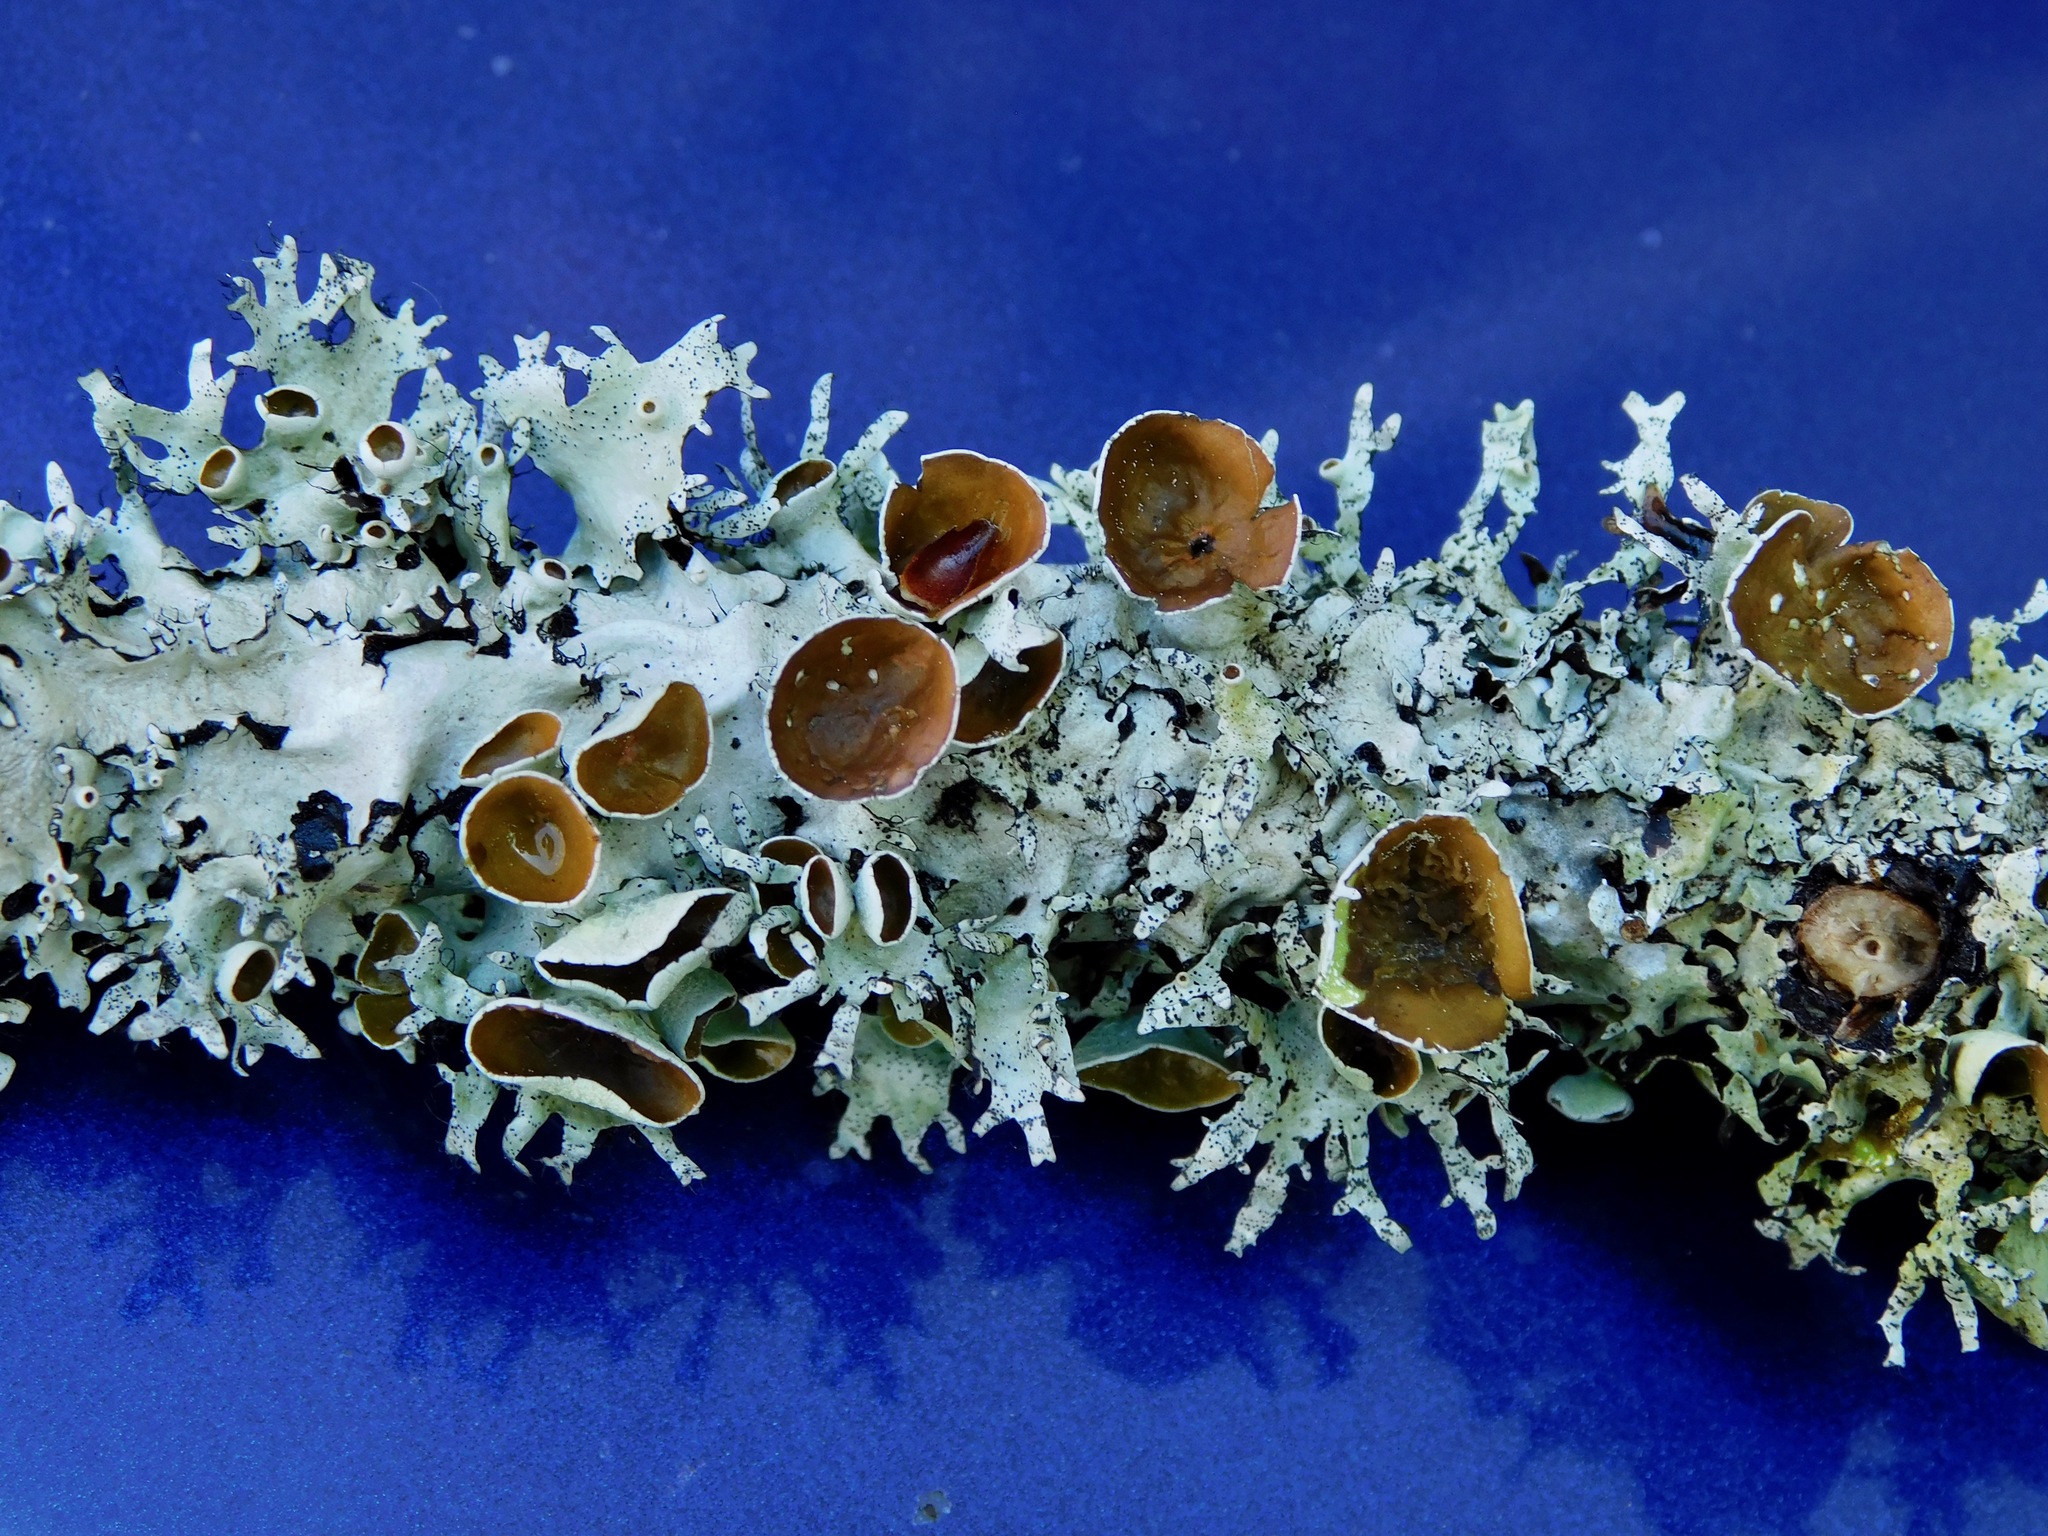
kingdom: Fungi
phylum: Ascomycota
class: Lecanoromycetes
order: Lecanorales
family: Parmeliaceae
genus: Parmotrema
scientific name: Parmotrema cetratum
